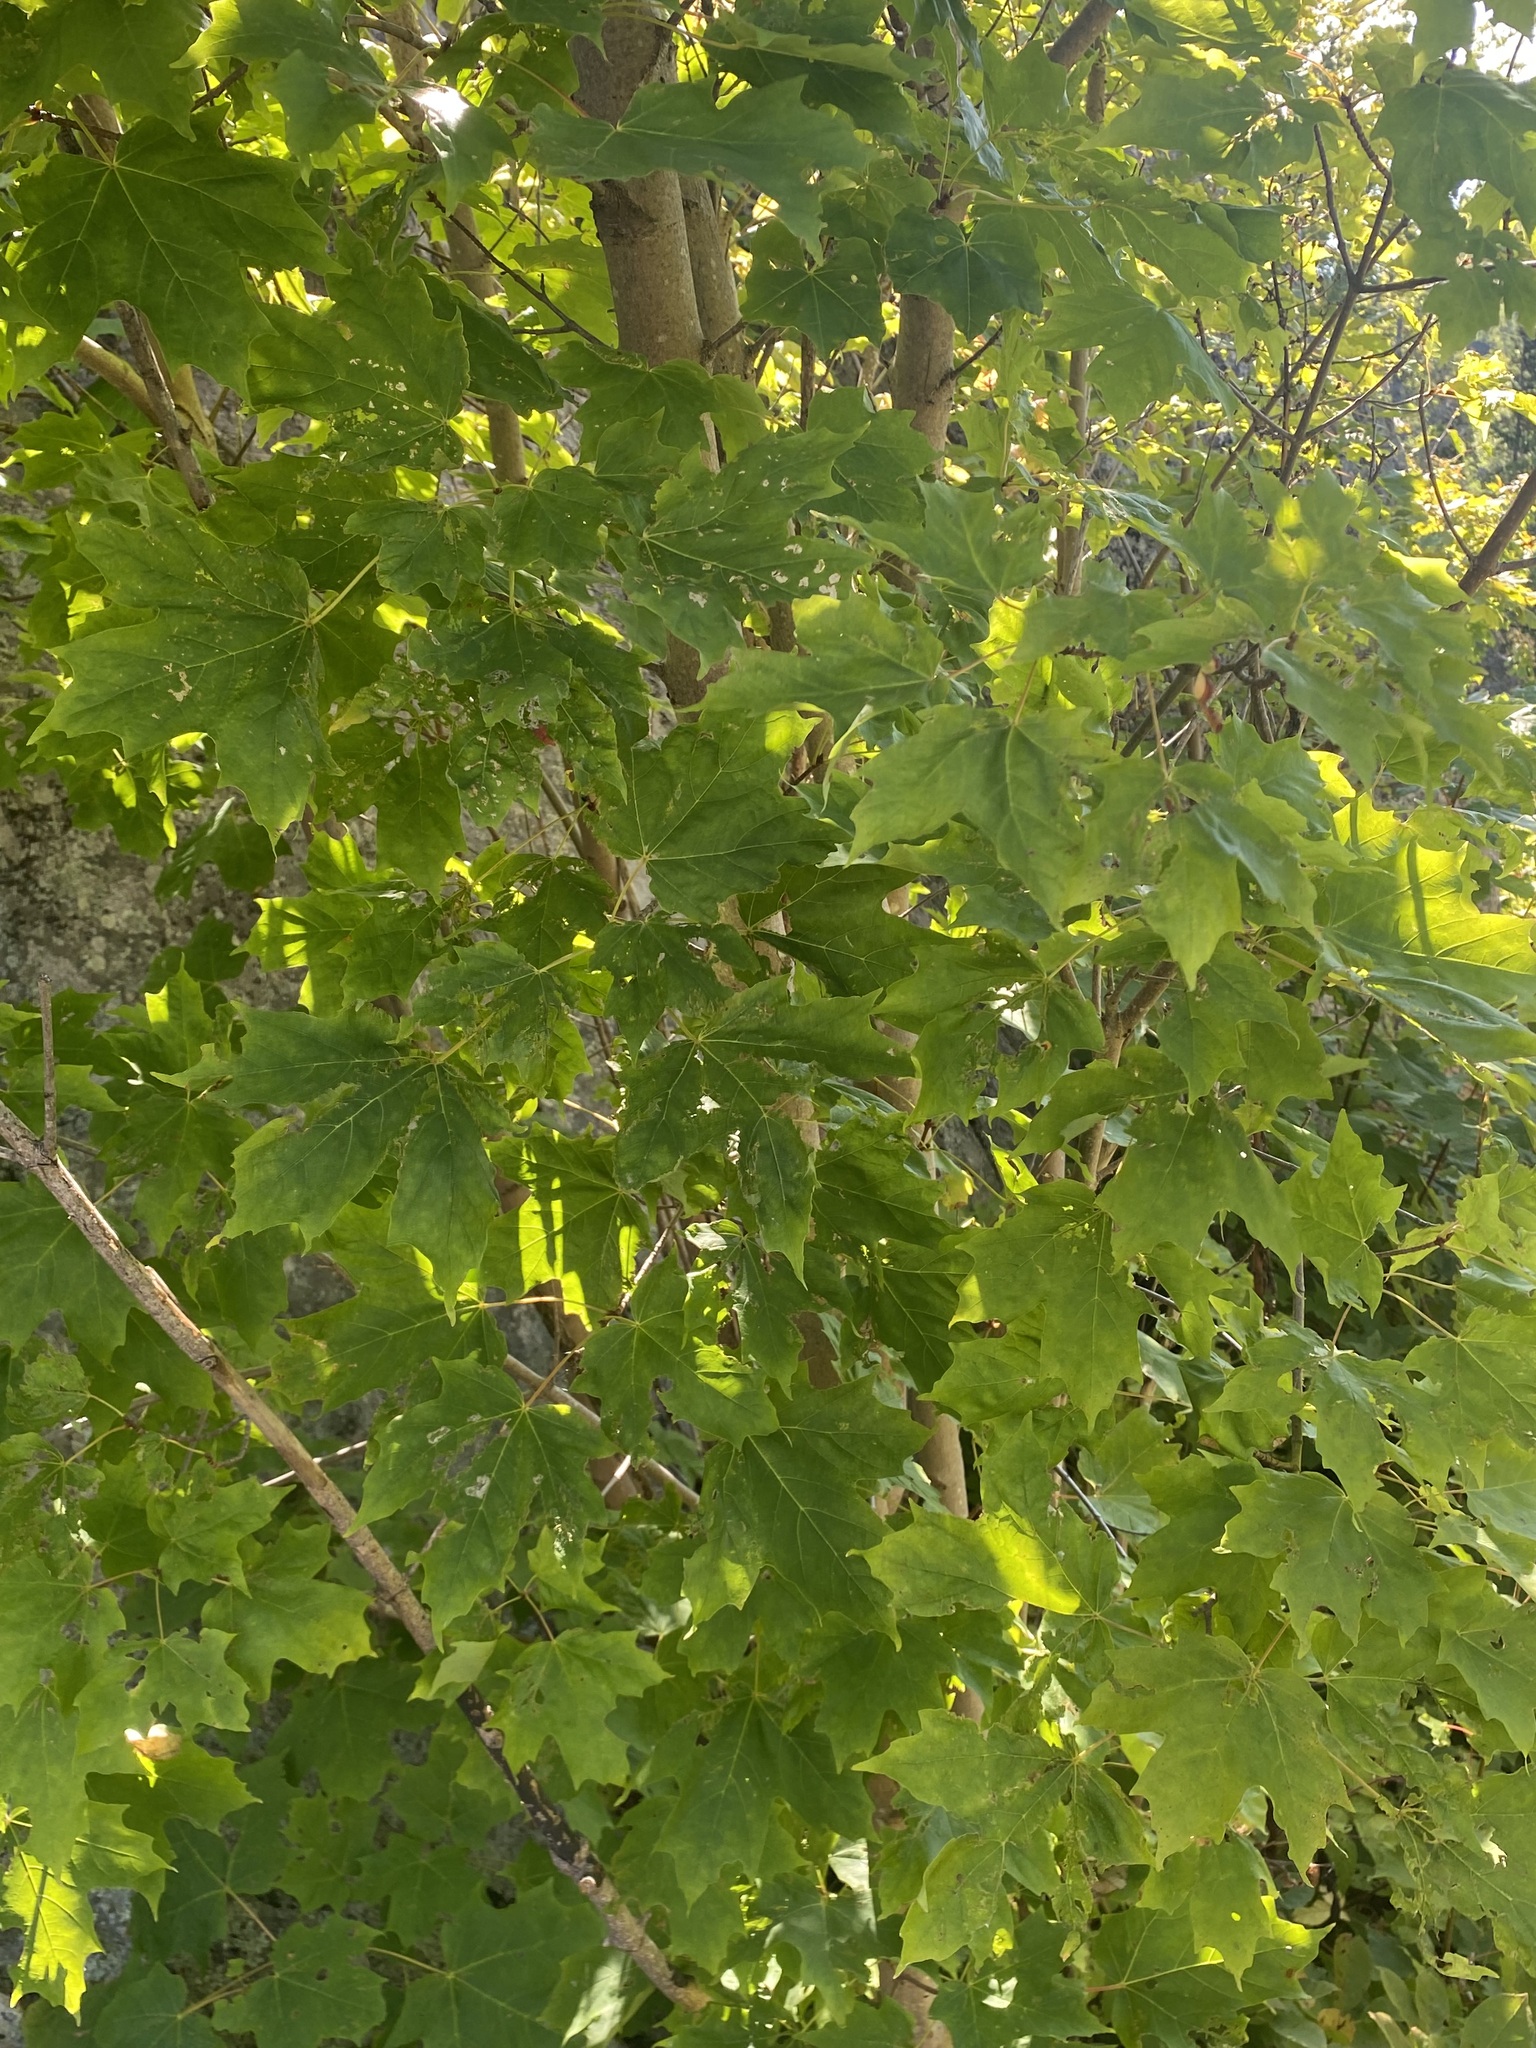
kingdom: Plantae
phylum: Tracheophyta
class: Magnoliopsida
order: Sapindales
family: Sapindaceae
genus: Acer
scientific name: Acer saccharum
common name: Sugar maple
